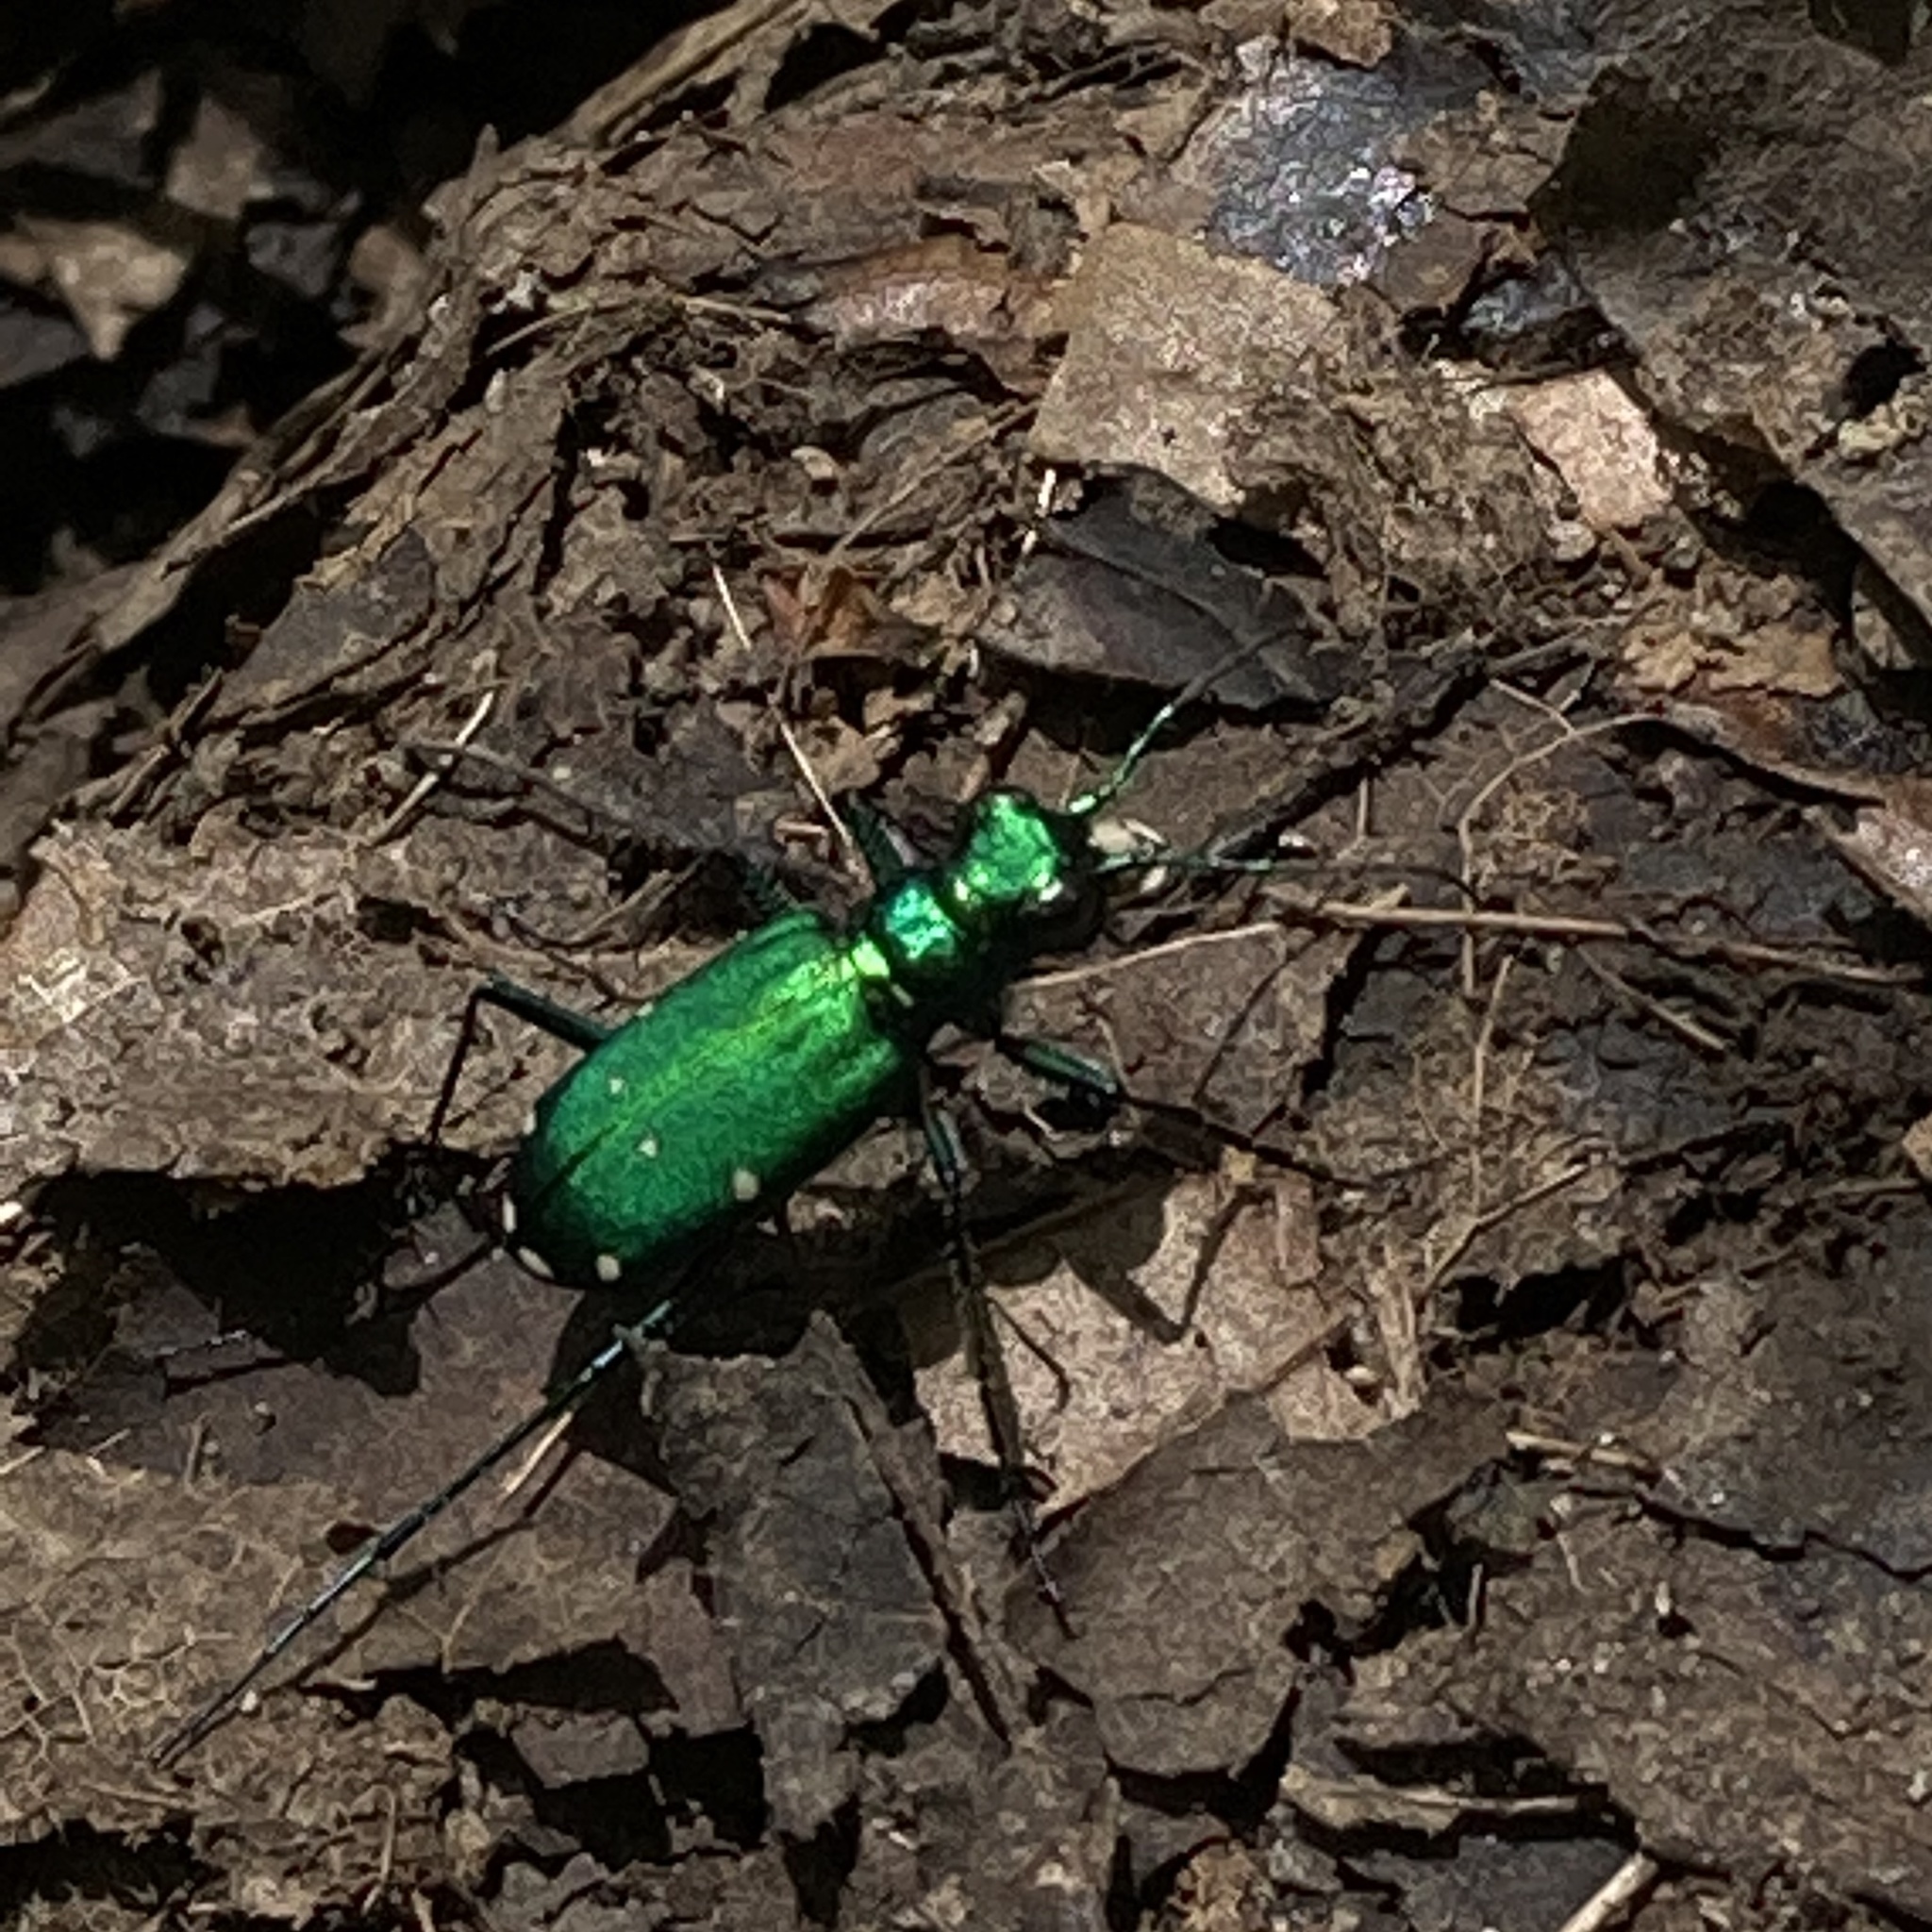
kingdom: Animalia
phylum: Arthropoda
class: Insecta
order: Coleoptera
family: Carabidae
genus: Cicindela
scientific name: Cicindela sexguttata
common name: Six-spotted tiger beetle
